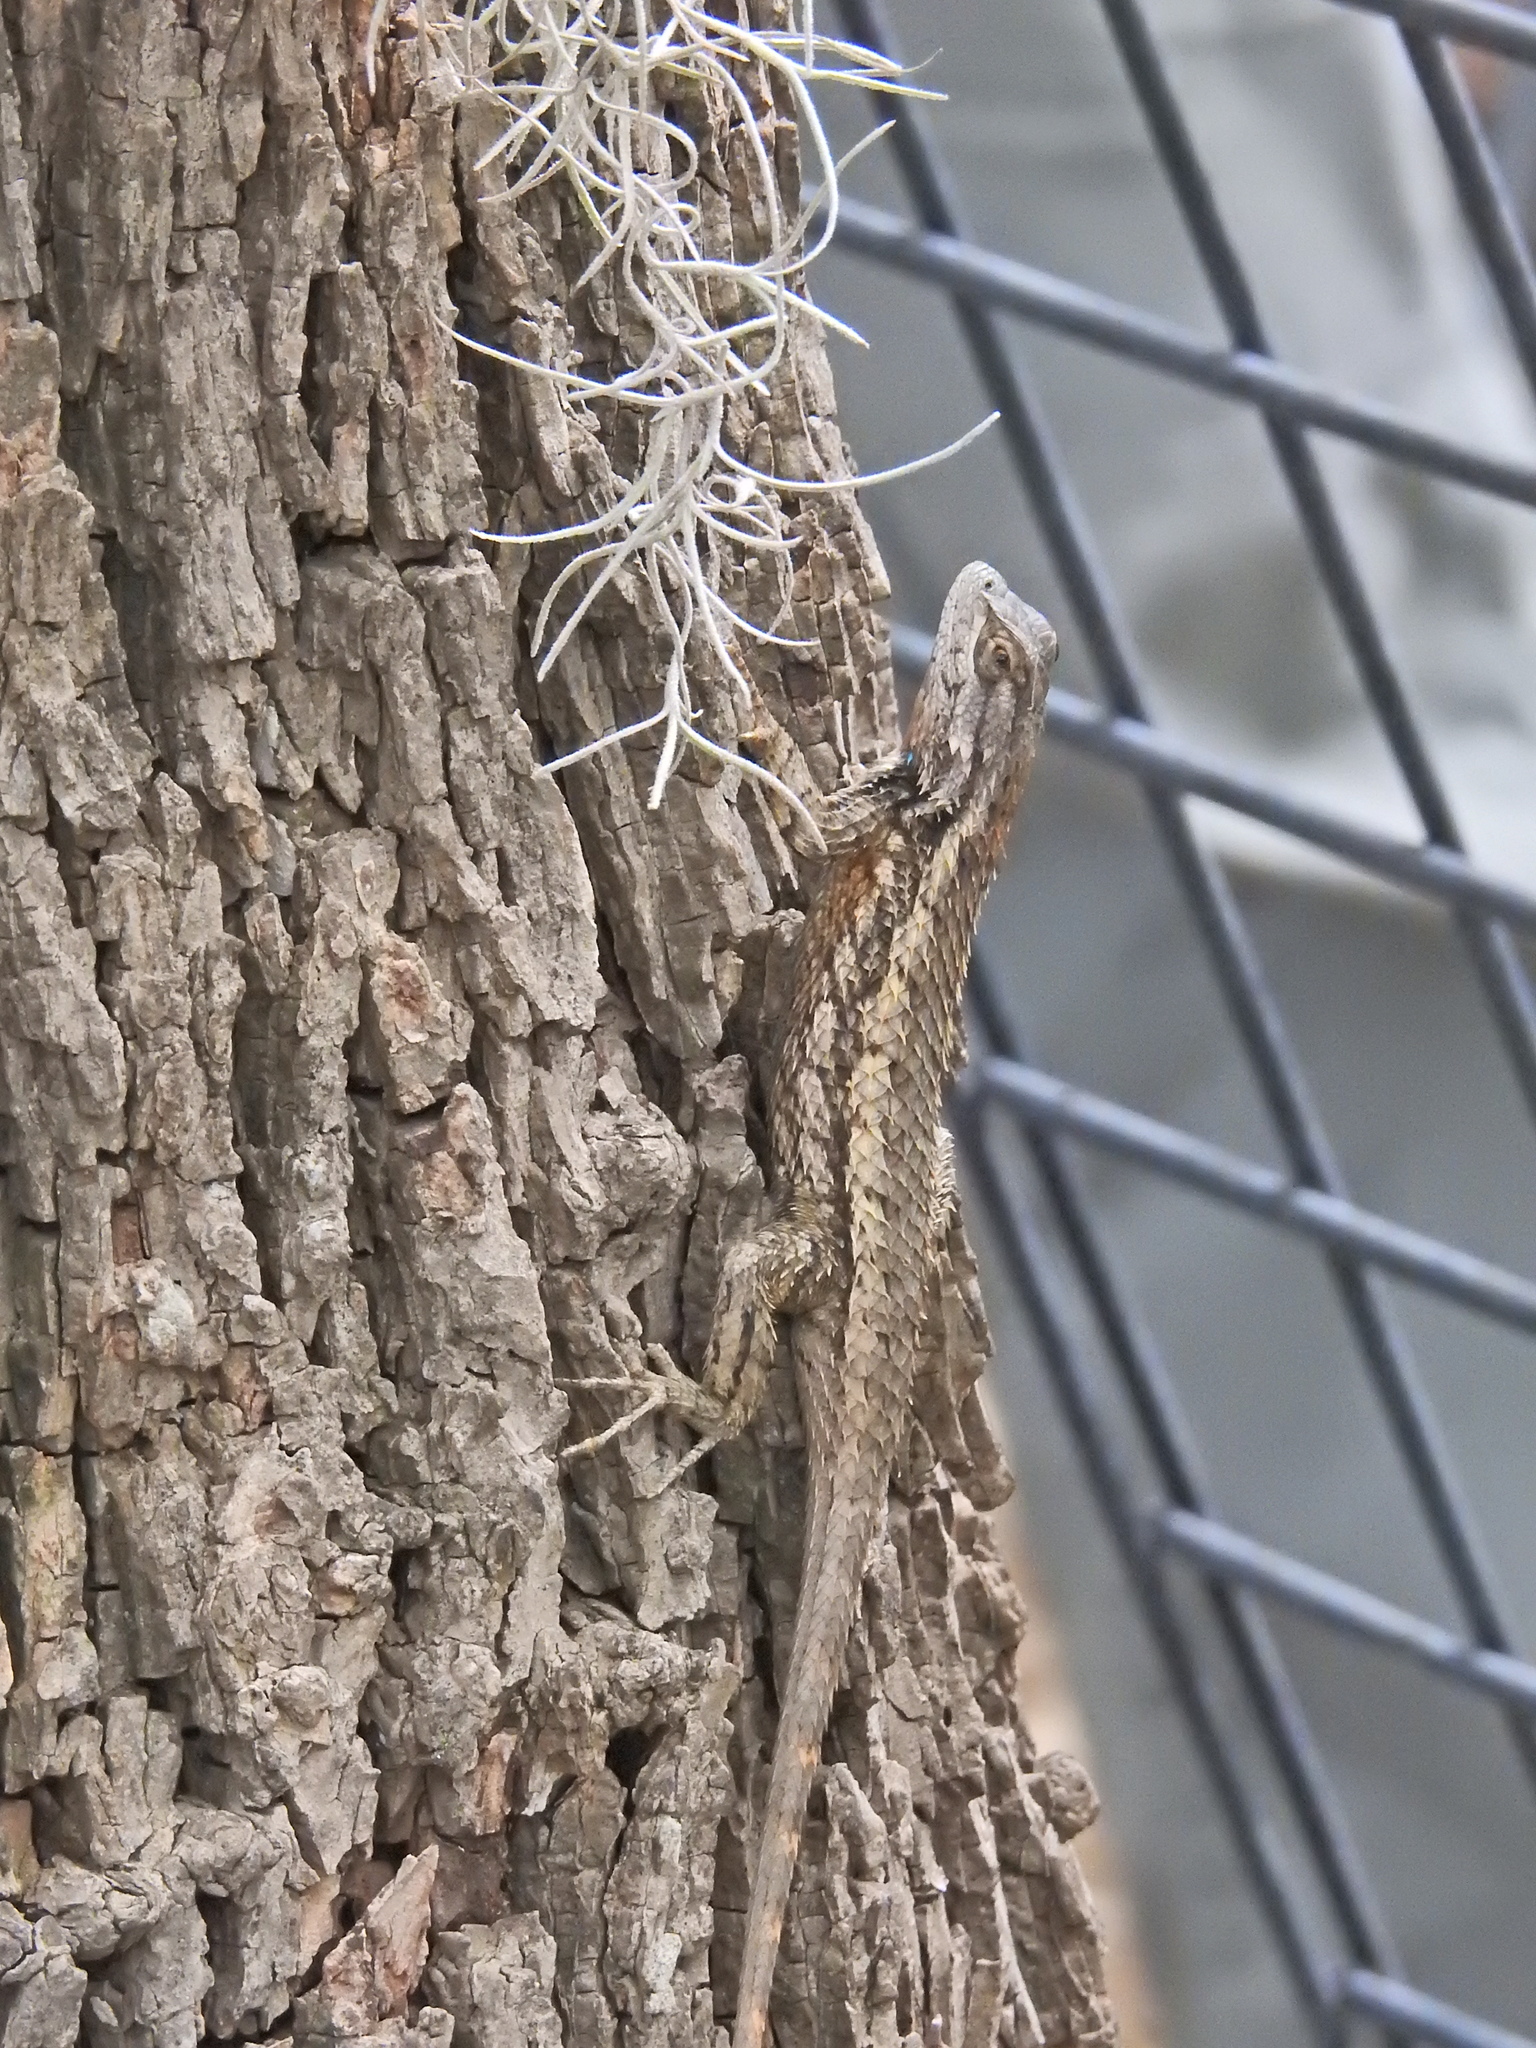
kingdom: Animalia
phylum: Chordata
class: Squamata
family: Phrynosomatidae
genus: Sceloporus
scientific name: Sceloporus olivaceus
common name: Texas spiny lizard
